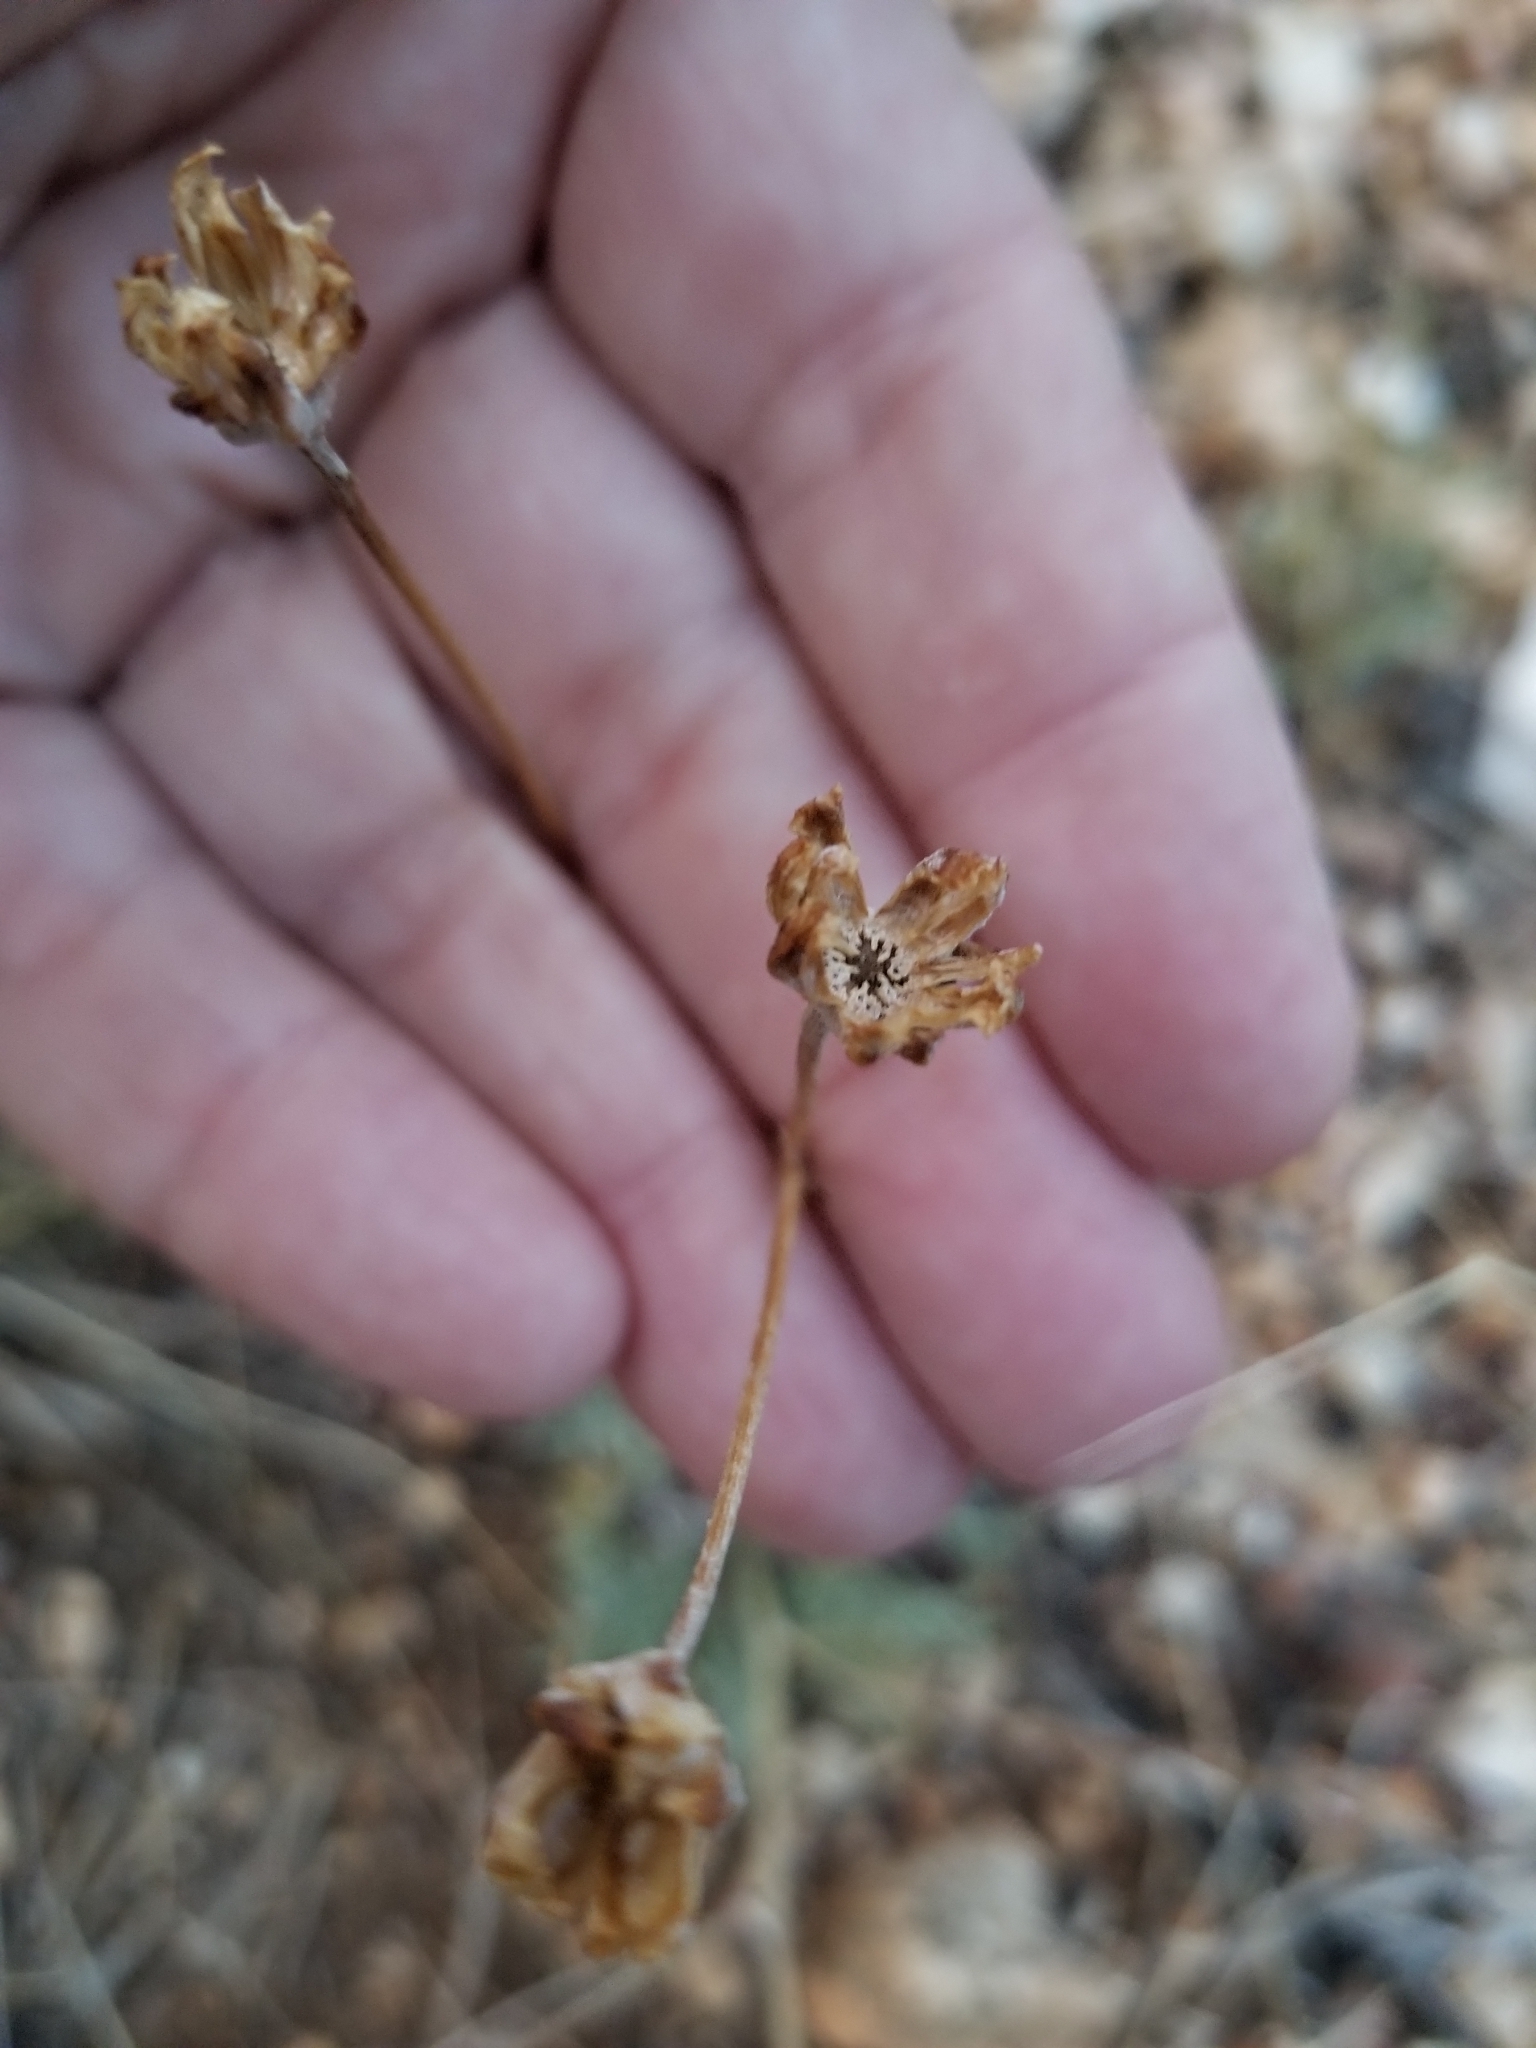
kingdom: Plantae
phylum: Tracheophyta
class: Magnoliopsida
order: Asterales
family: Asteraceae
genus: Hymenopappus
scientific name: Hymenopappus filifolius
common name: Columbia cutleaf
